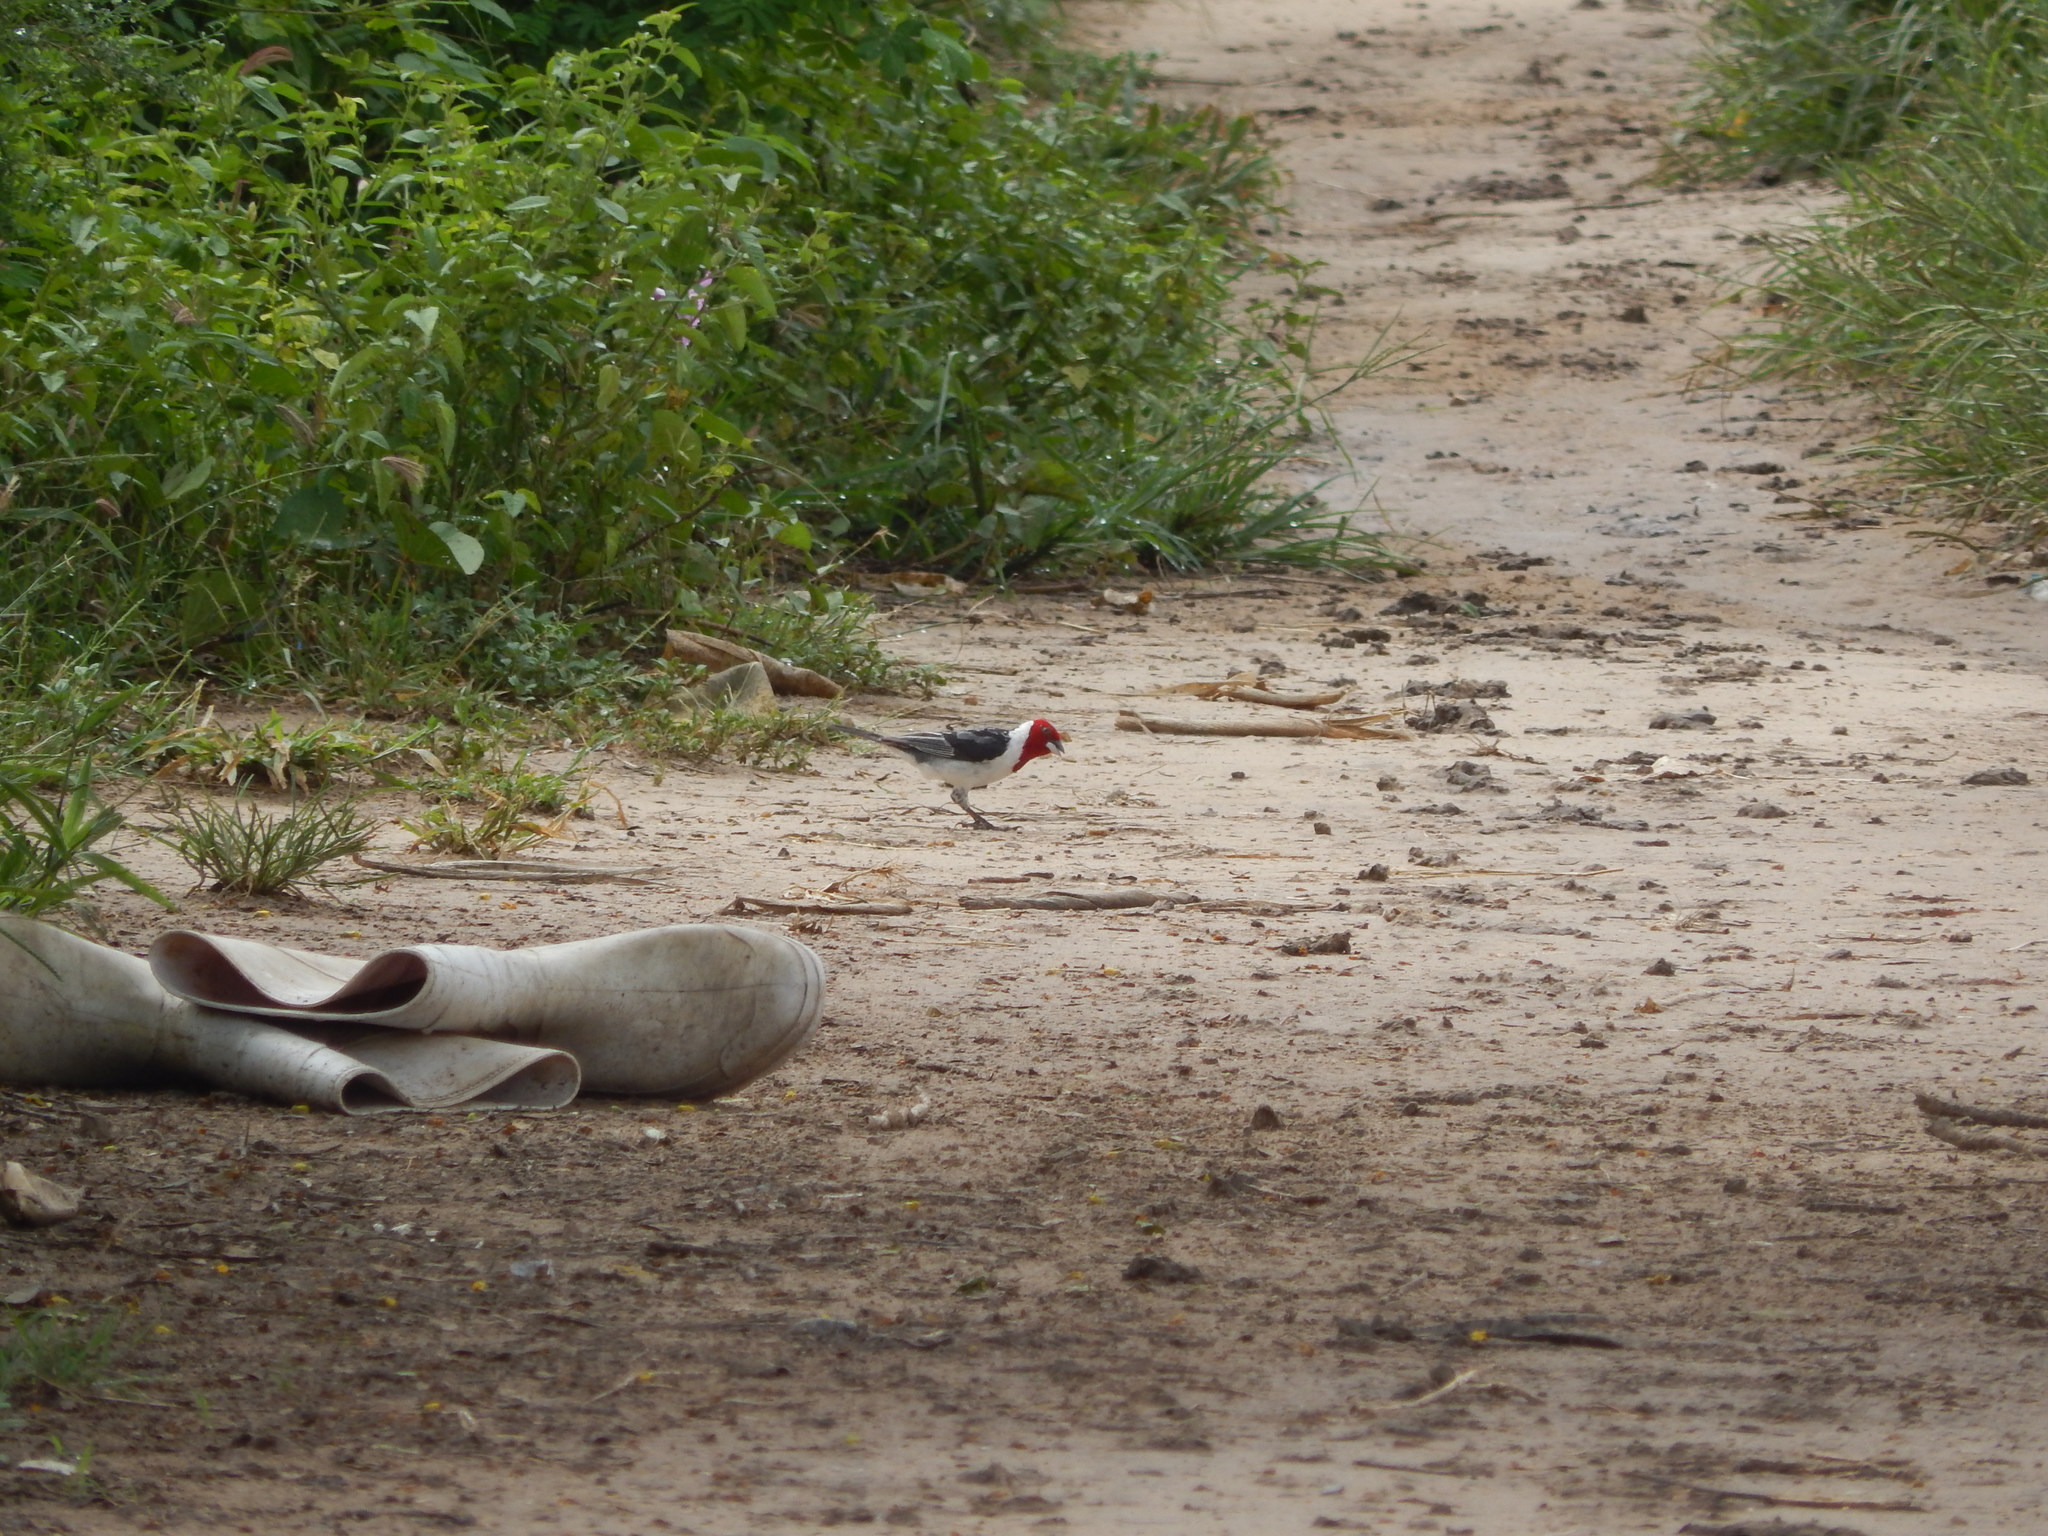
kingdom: Animalia
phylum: Chordata
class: Aves
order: Passeriformes
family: Thraupidae
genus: Paroaria
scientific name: Paroaria dominicana
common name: Red-cowled cardinal
